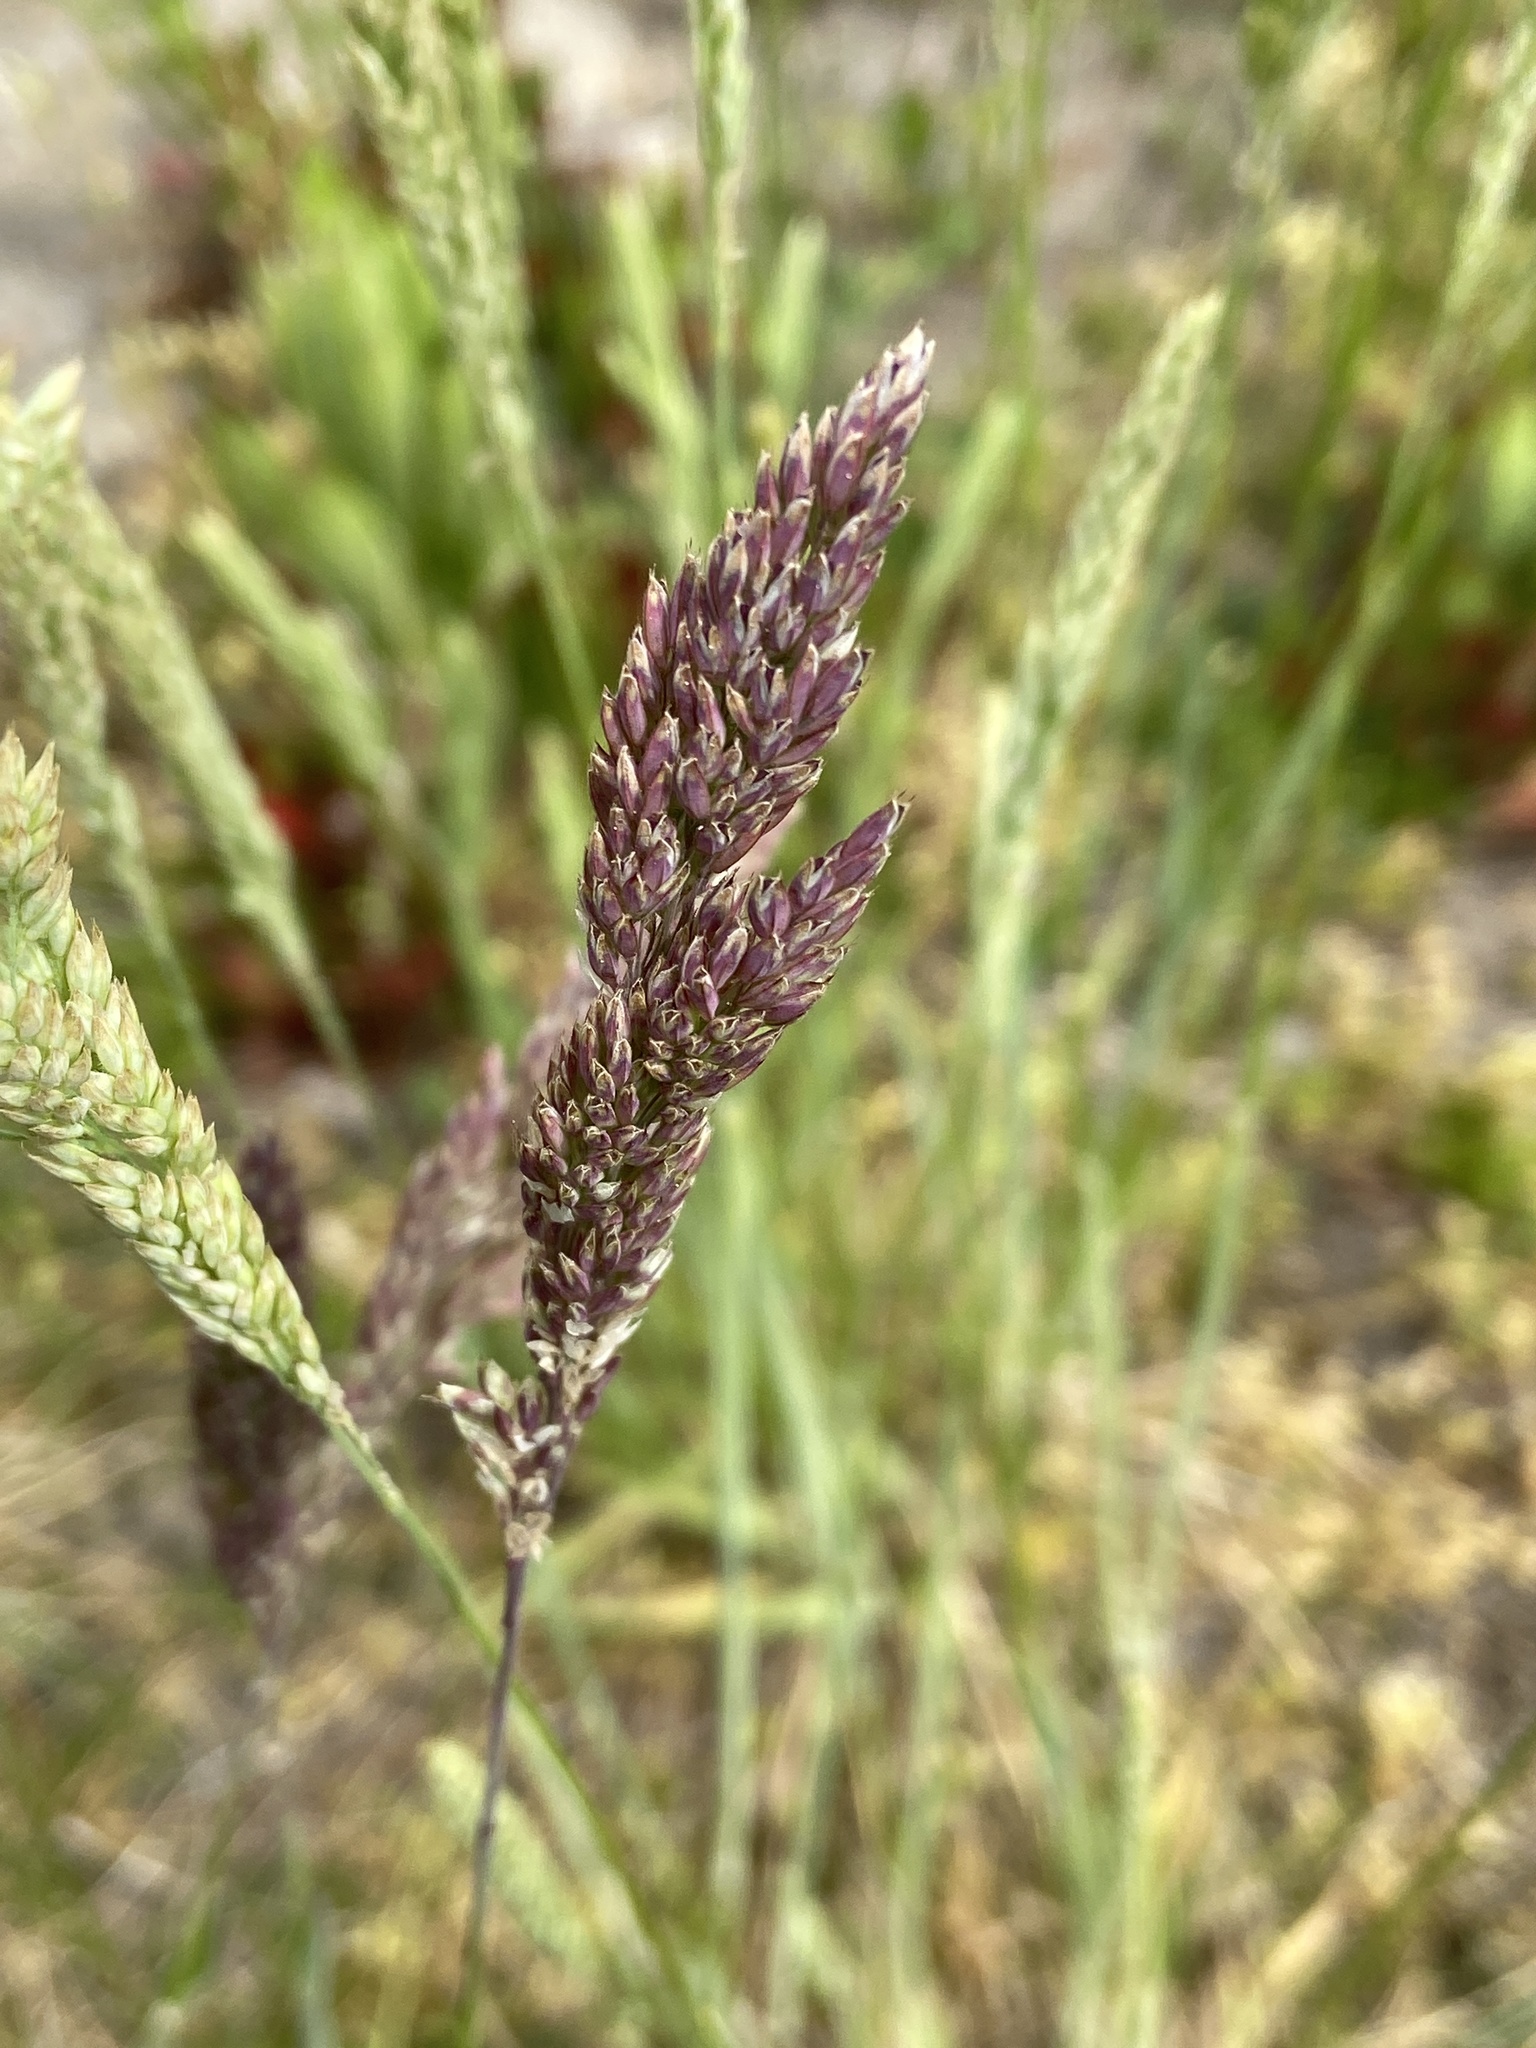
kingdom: Plantae
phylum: Tracheophyta
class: Liliopsida
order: Poales
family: Poaceae
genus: Holcus
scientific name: Holcus lanatus
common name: Yorkshire-fog
